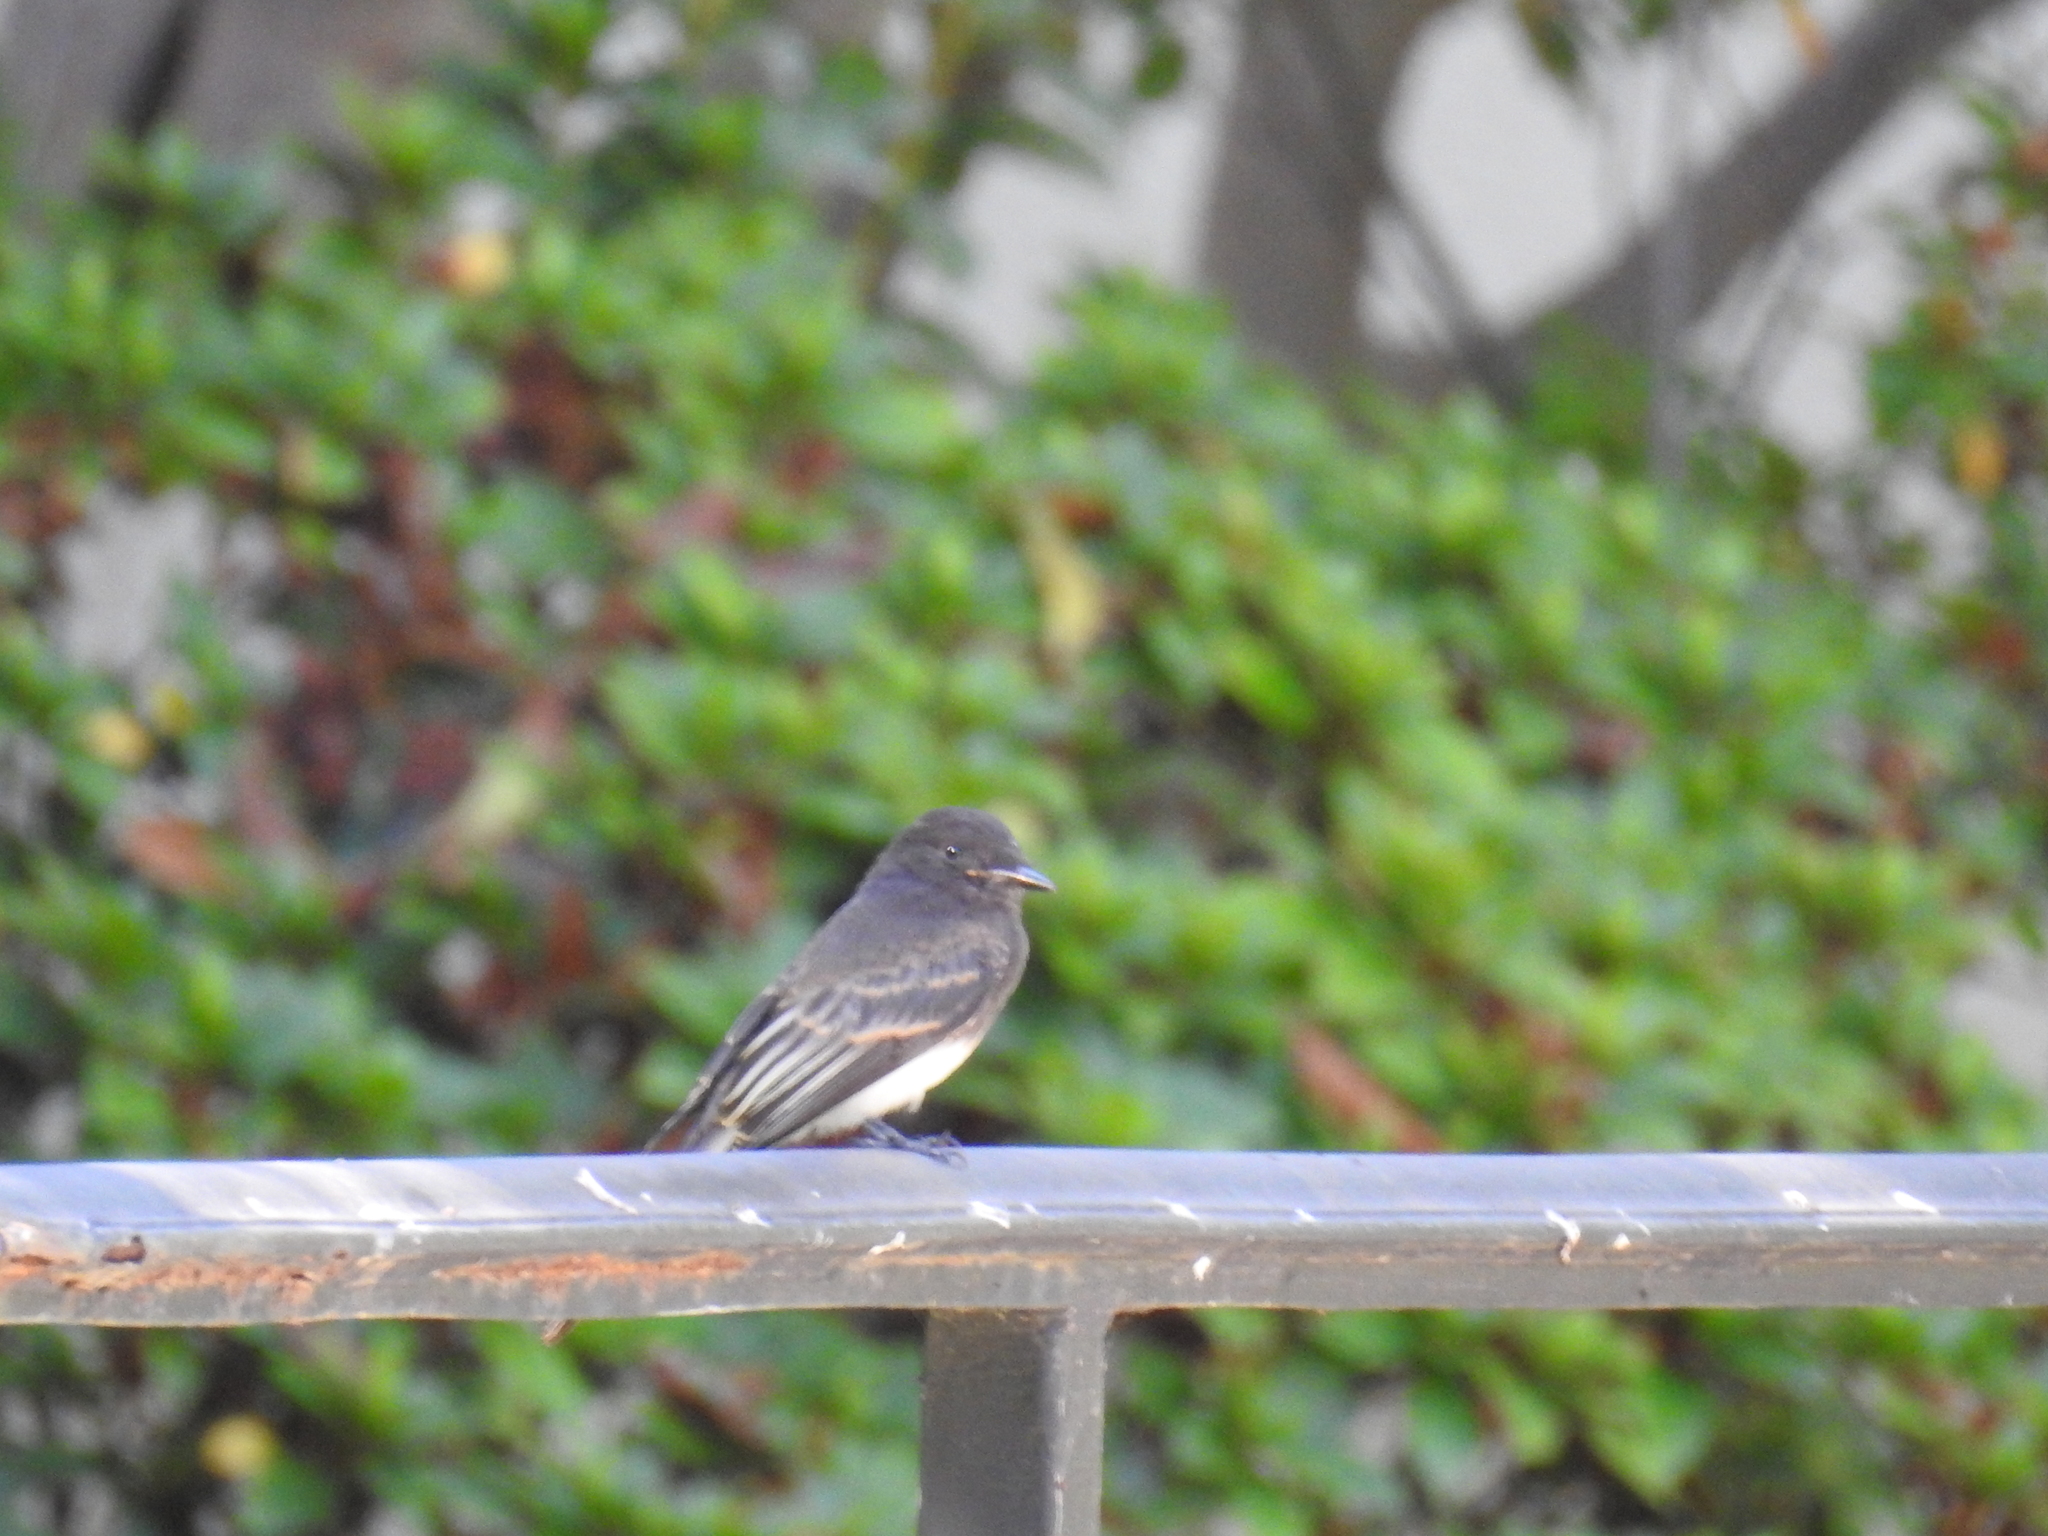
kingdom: Animalia
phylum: Chordata
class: Aves
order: Passeriformes
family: Tyrannidae
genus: Sayornis
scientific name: Sayornis nigricans
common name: Black phoebe
